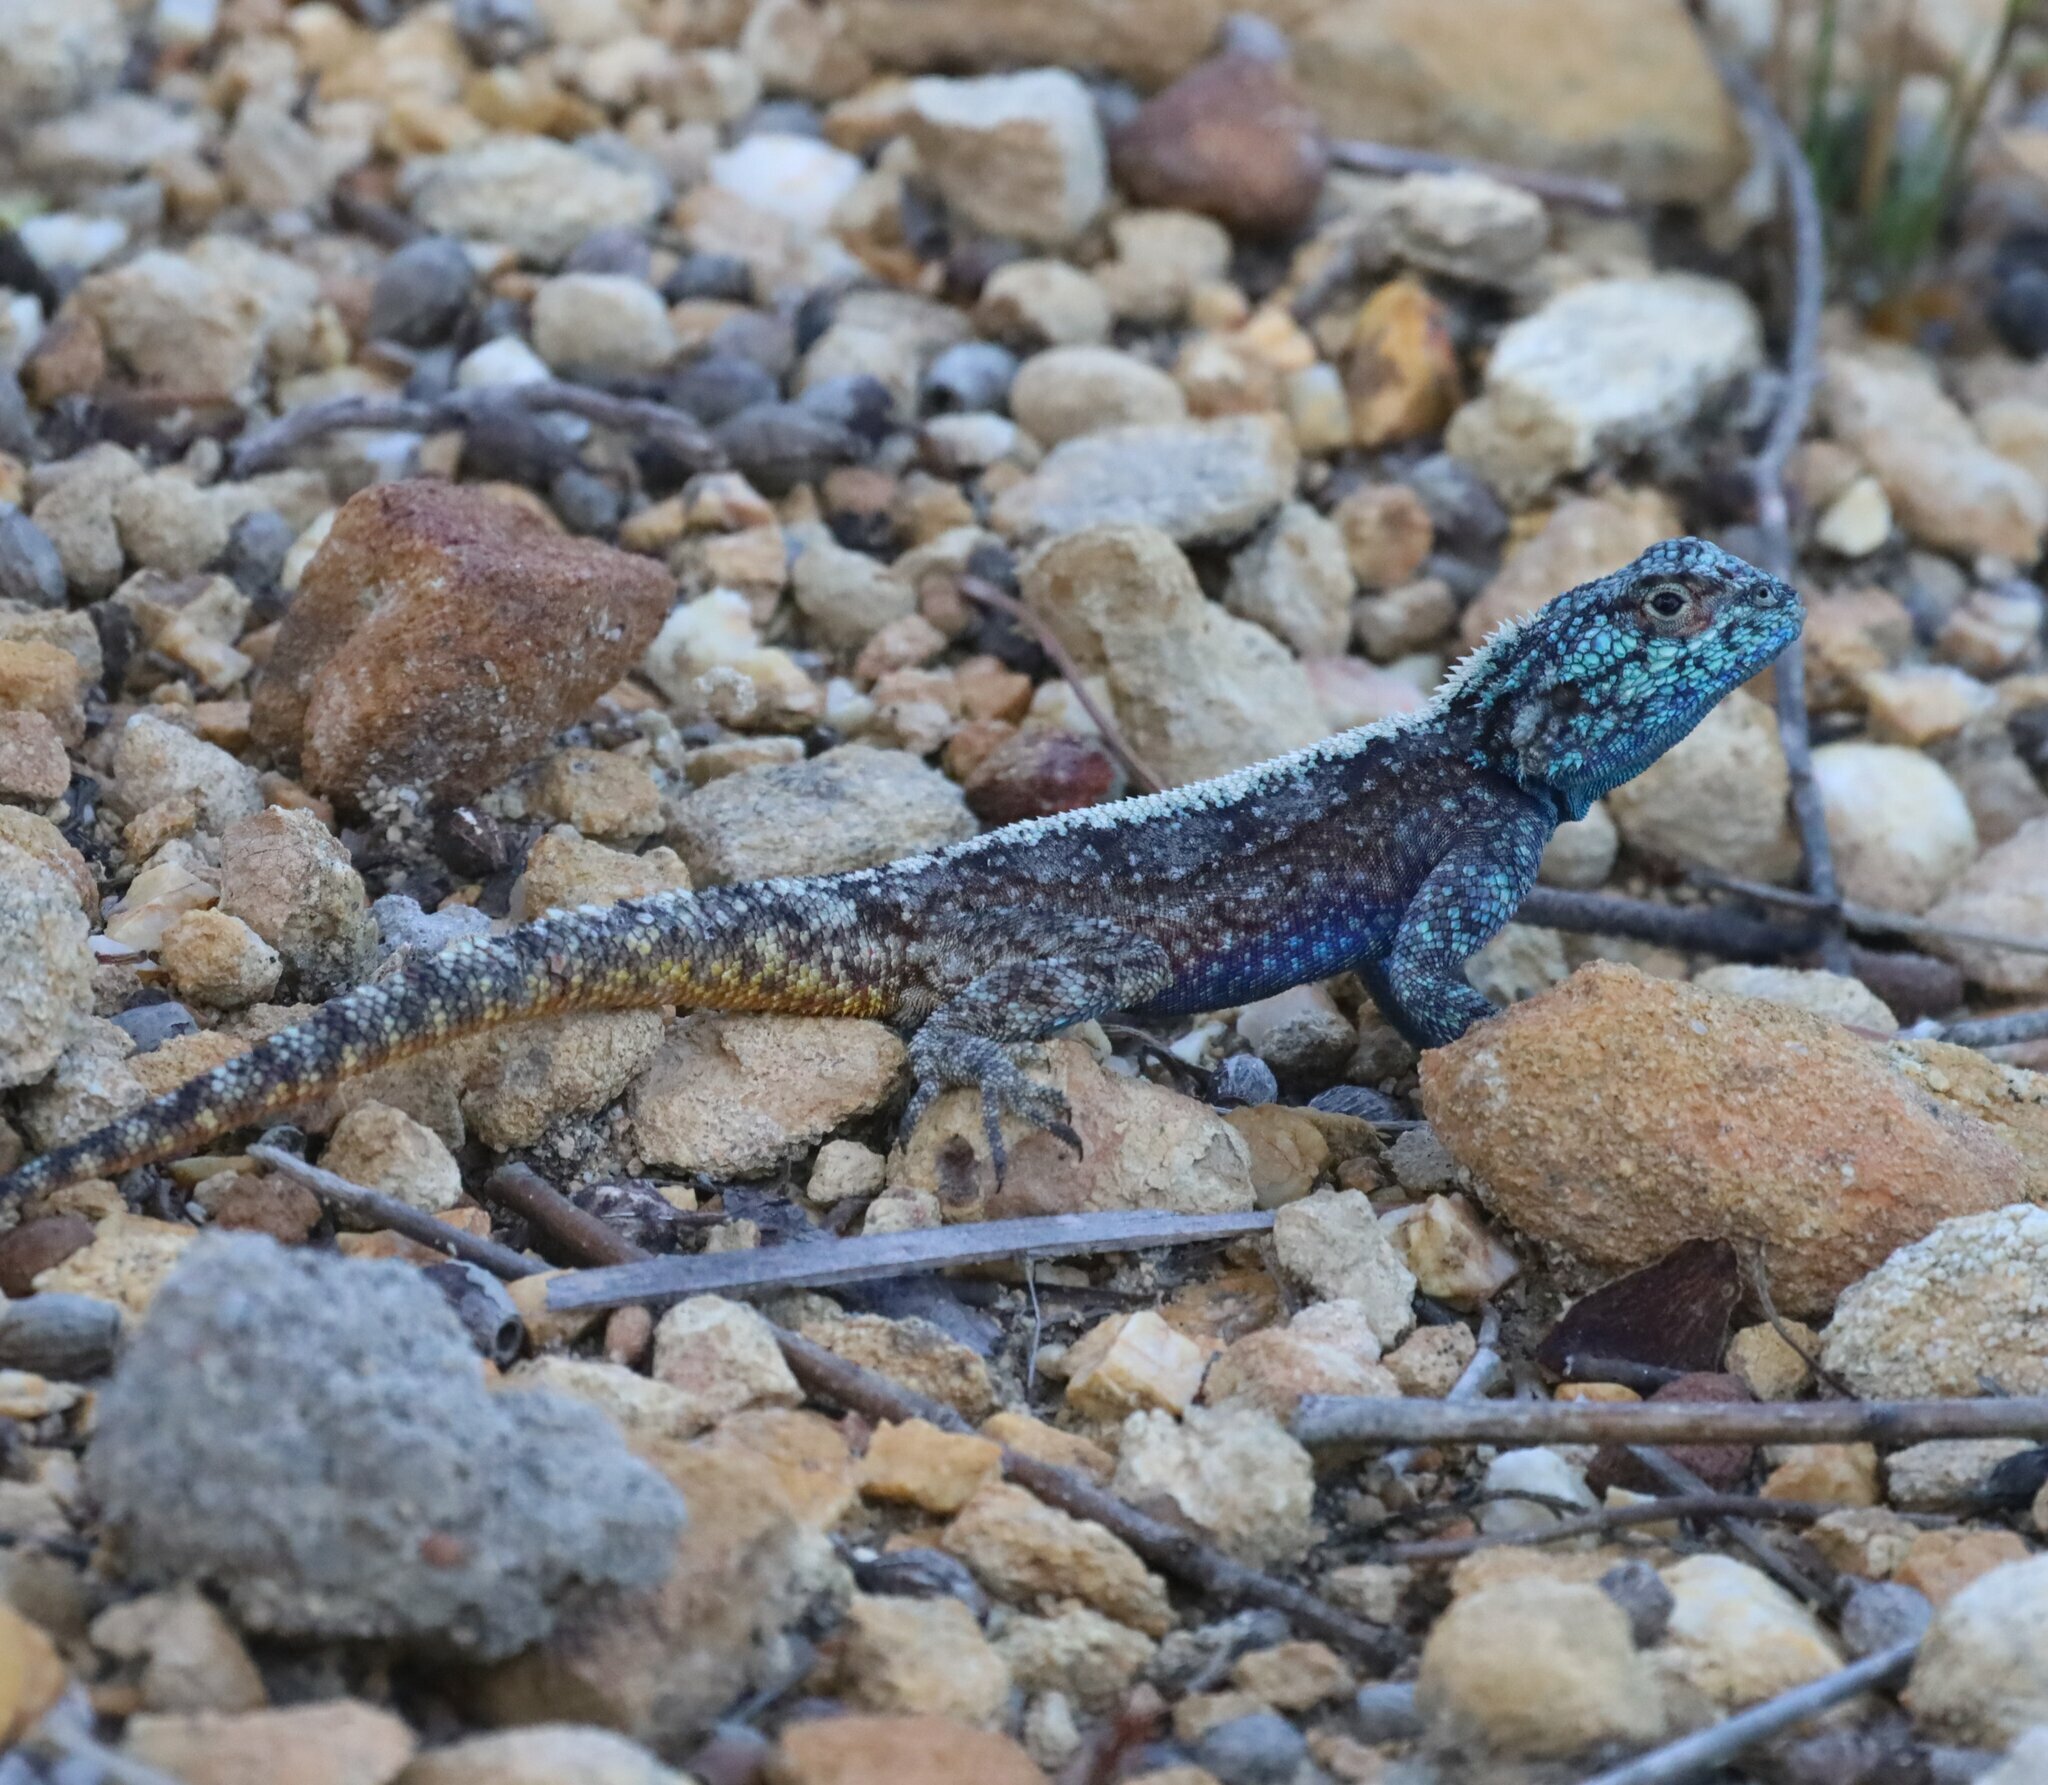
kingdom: Animalia
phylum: Chordata
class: Squamata
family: Agamidae
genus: Agama
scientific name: Agama atra
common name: Southern african rock agama
